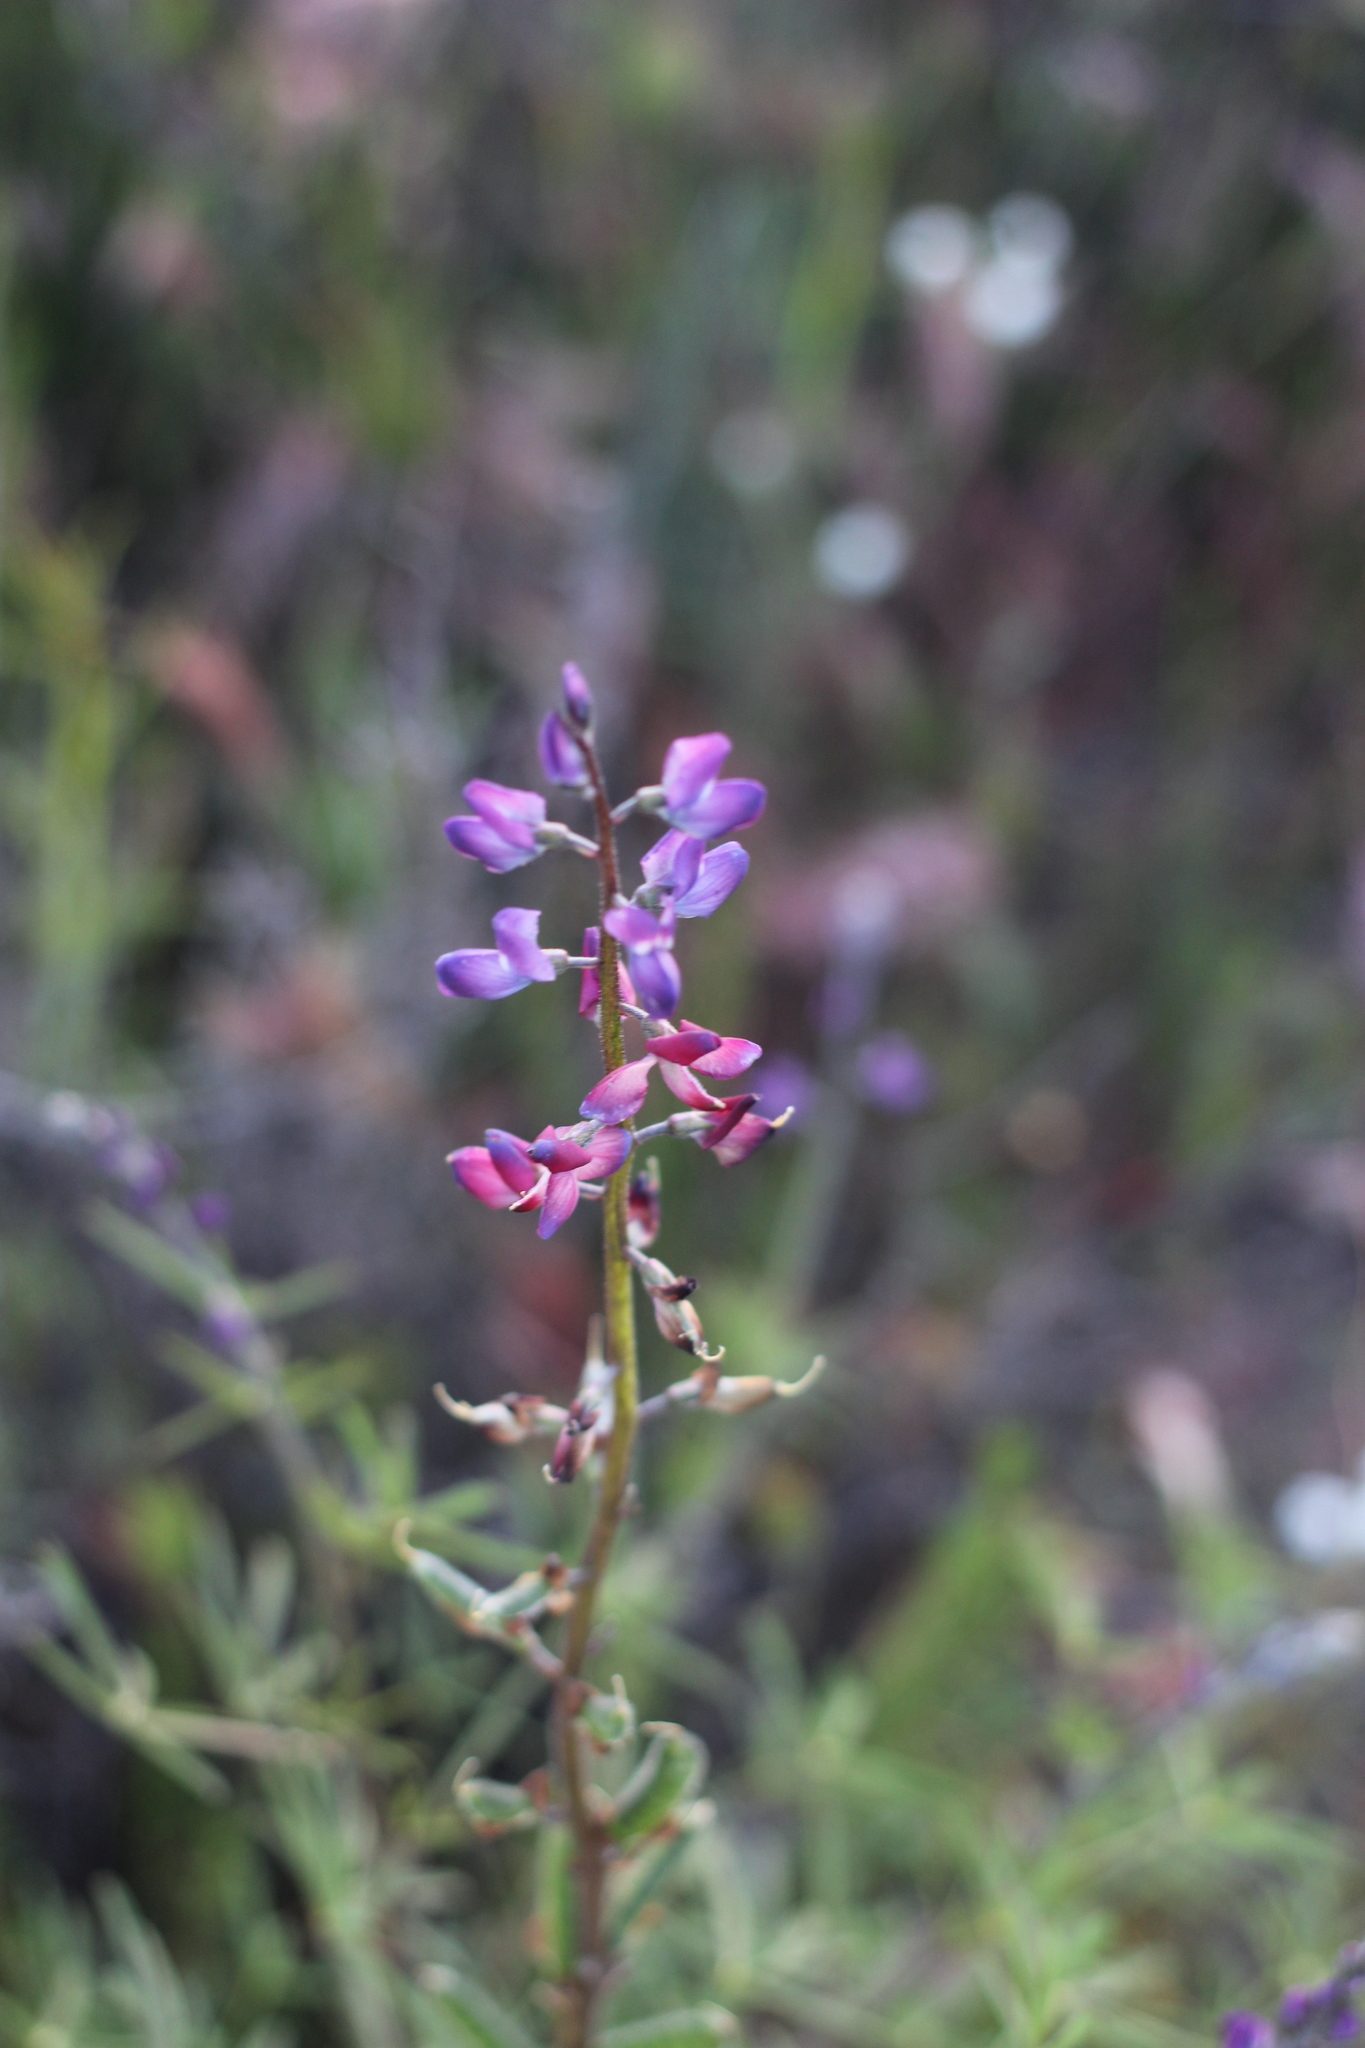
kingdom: Plantae
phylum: Tracheophyta
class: Magnoliopsida
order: Fabales
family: Fabaceae
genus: Lupinus
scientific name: Lupinus truncatus
